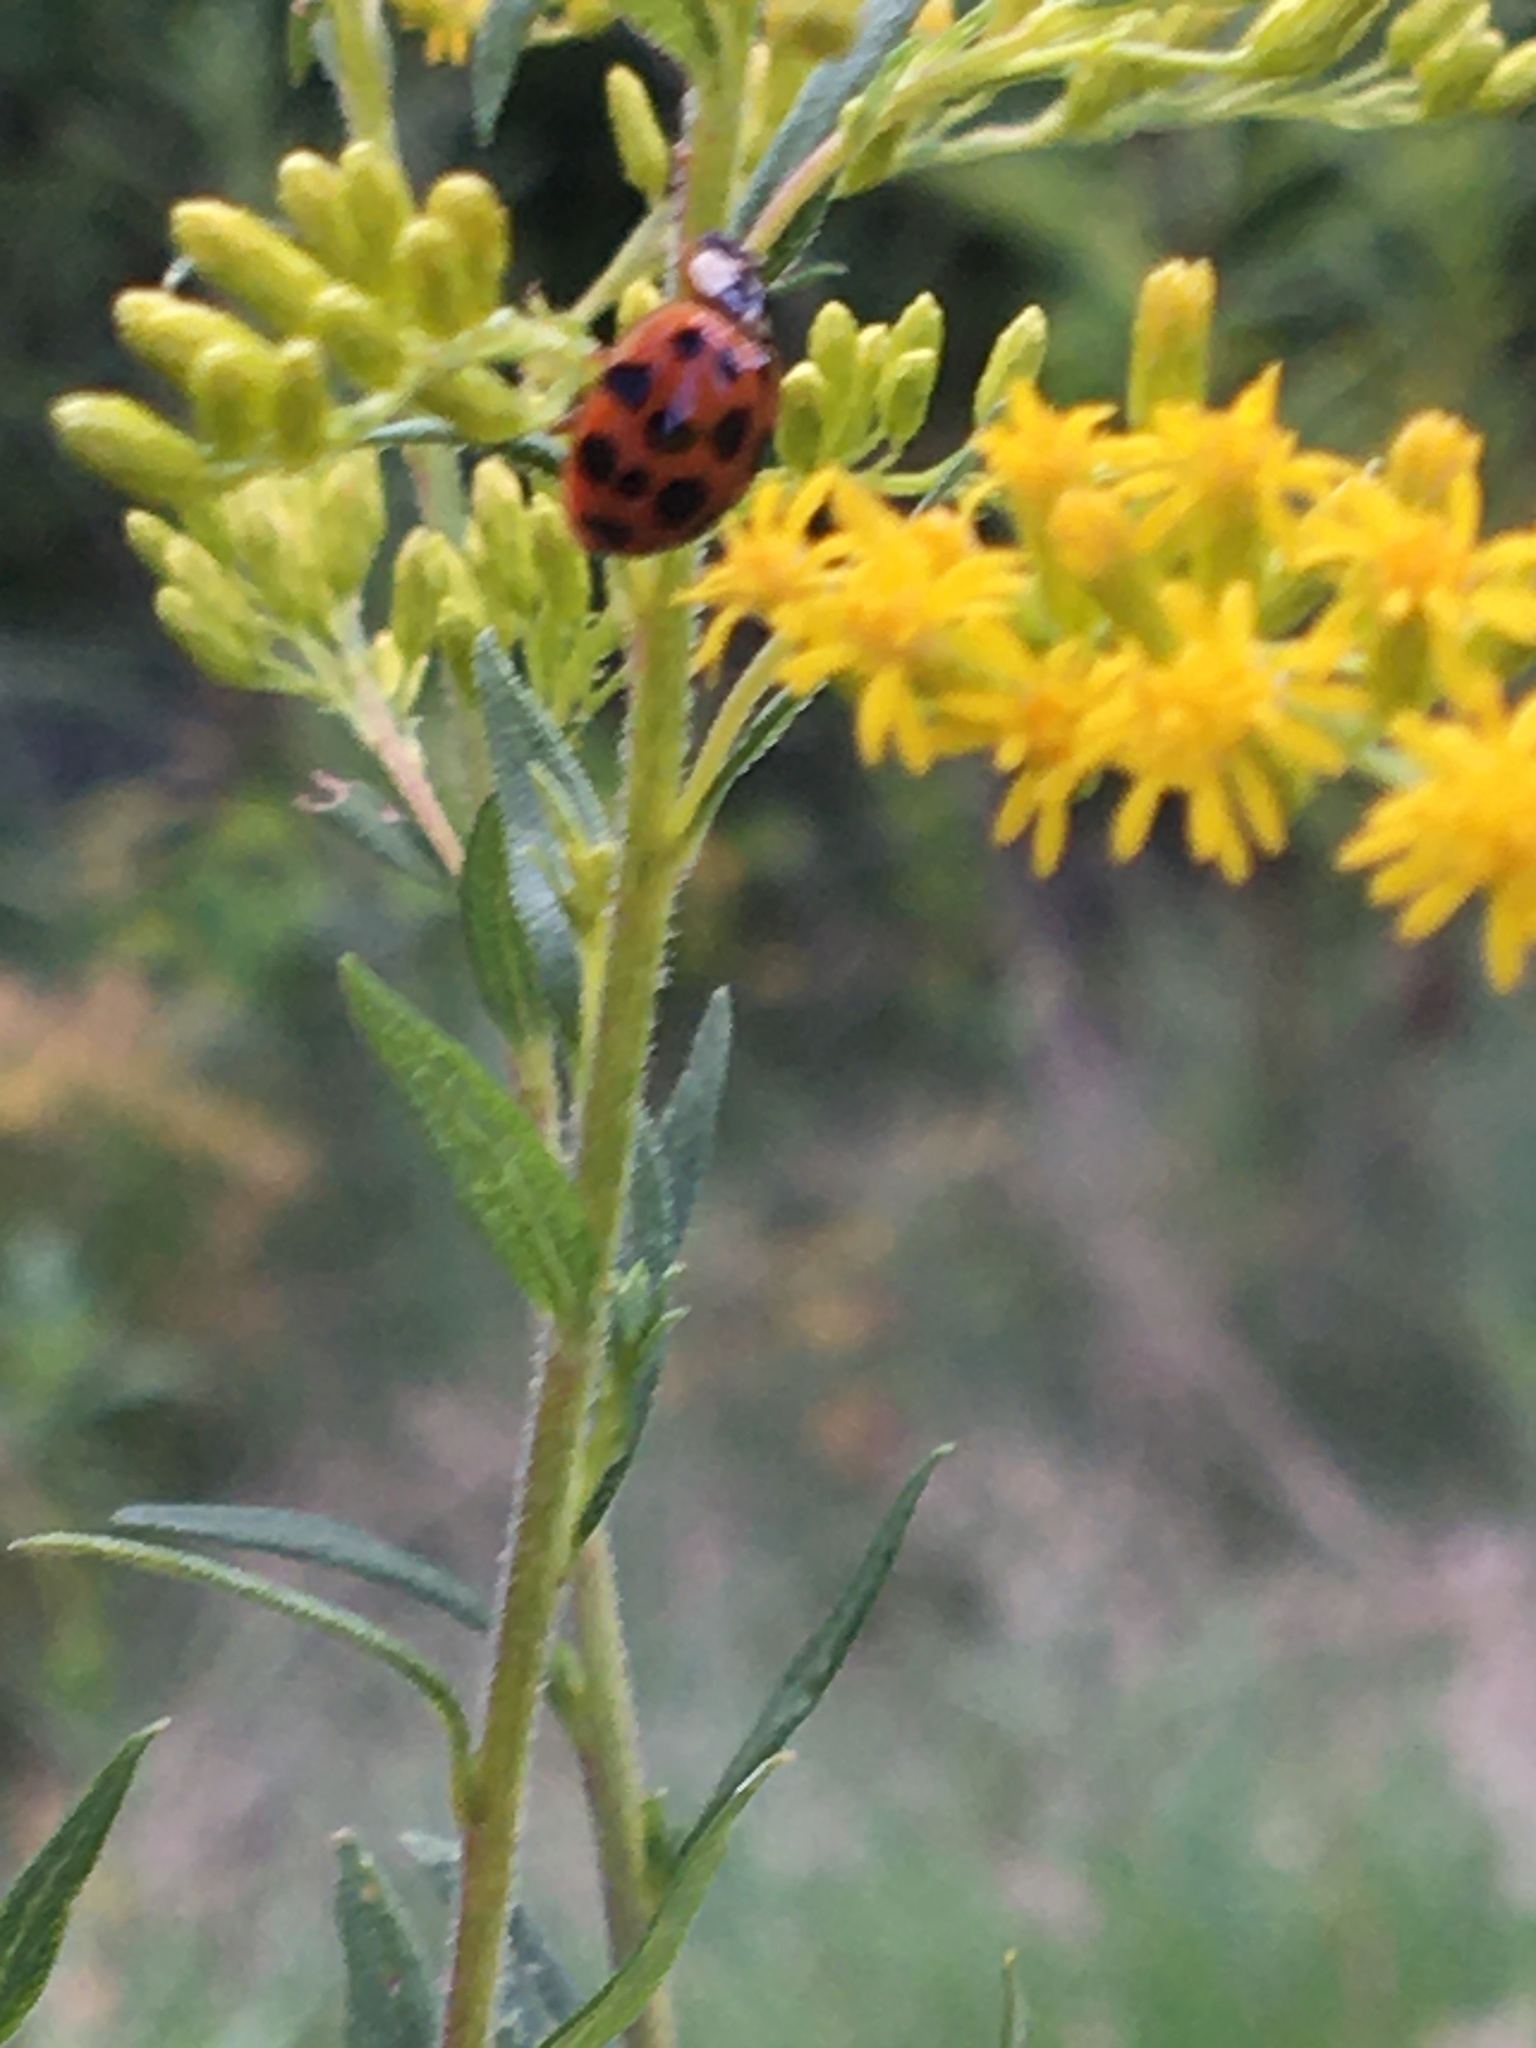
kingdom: Animalia
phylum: Arthropoda
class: Insecta
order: Coleoptera
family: Coccinellidae
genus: Harmonia
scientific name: Harmonia axyridis
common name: Harlequin ladybird
